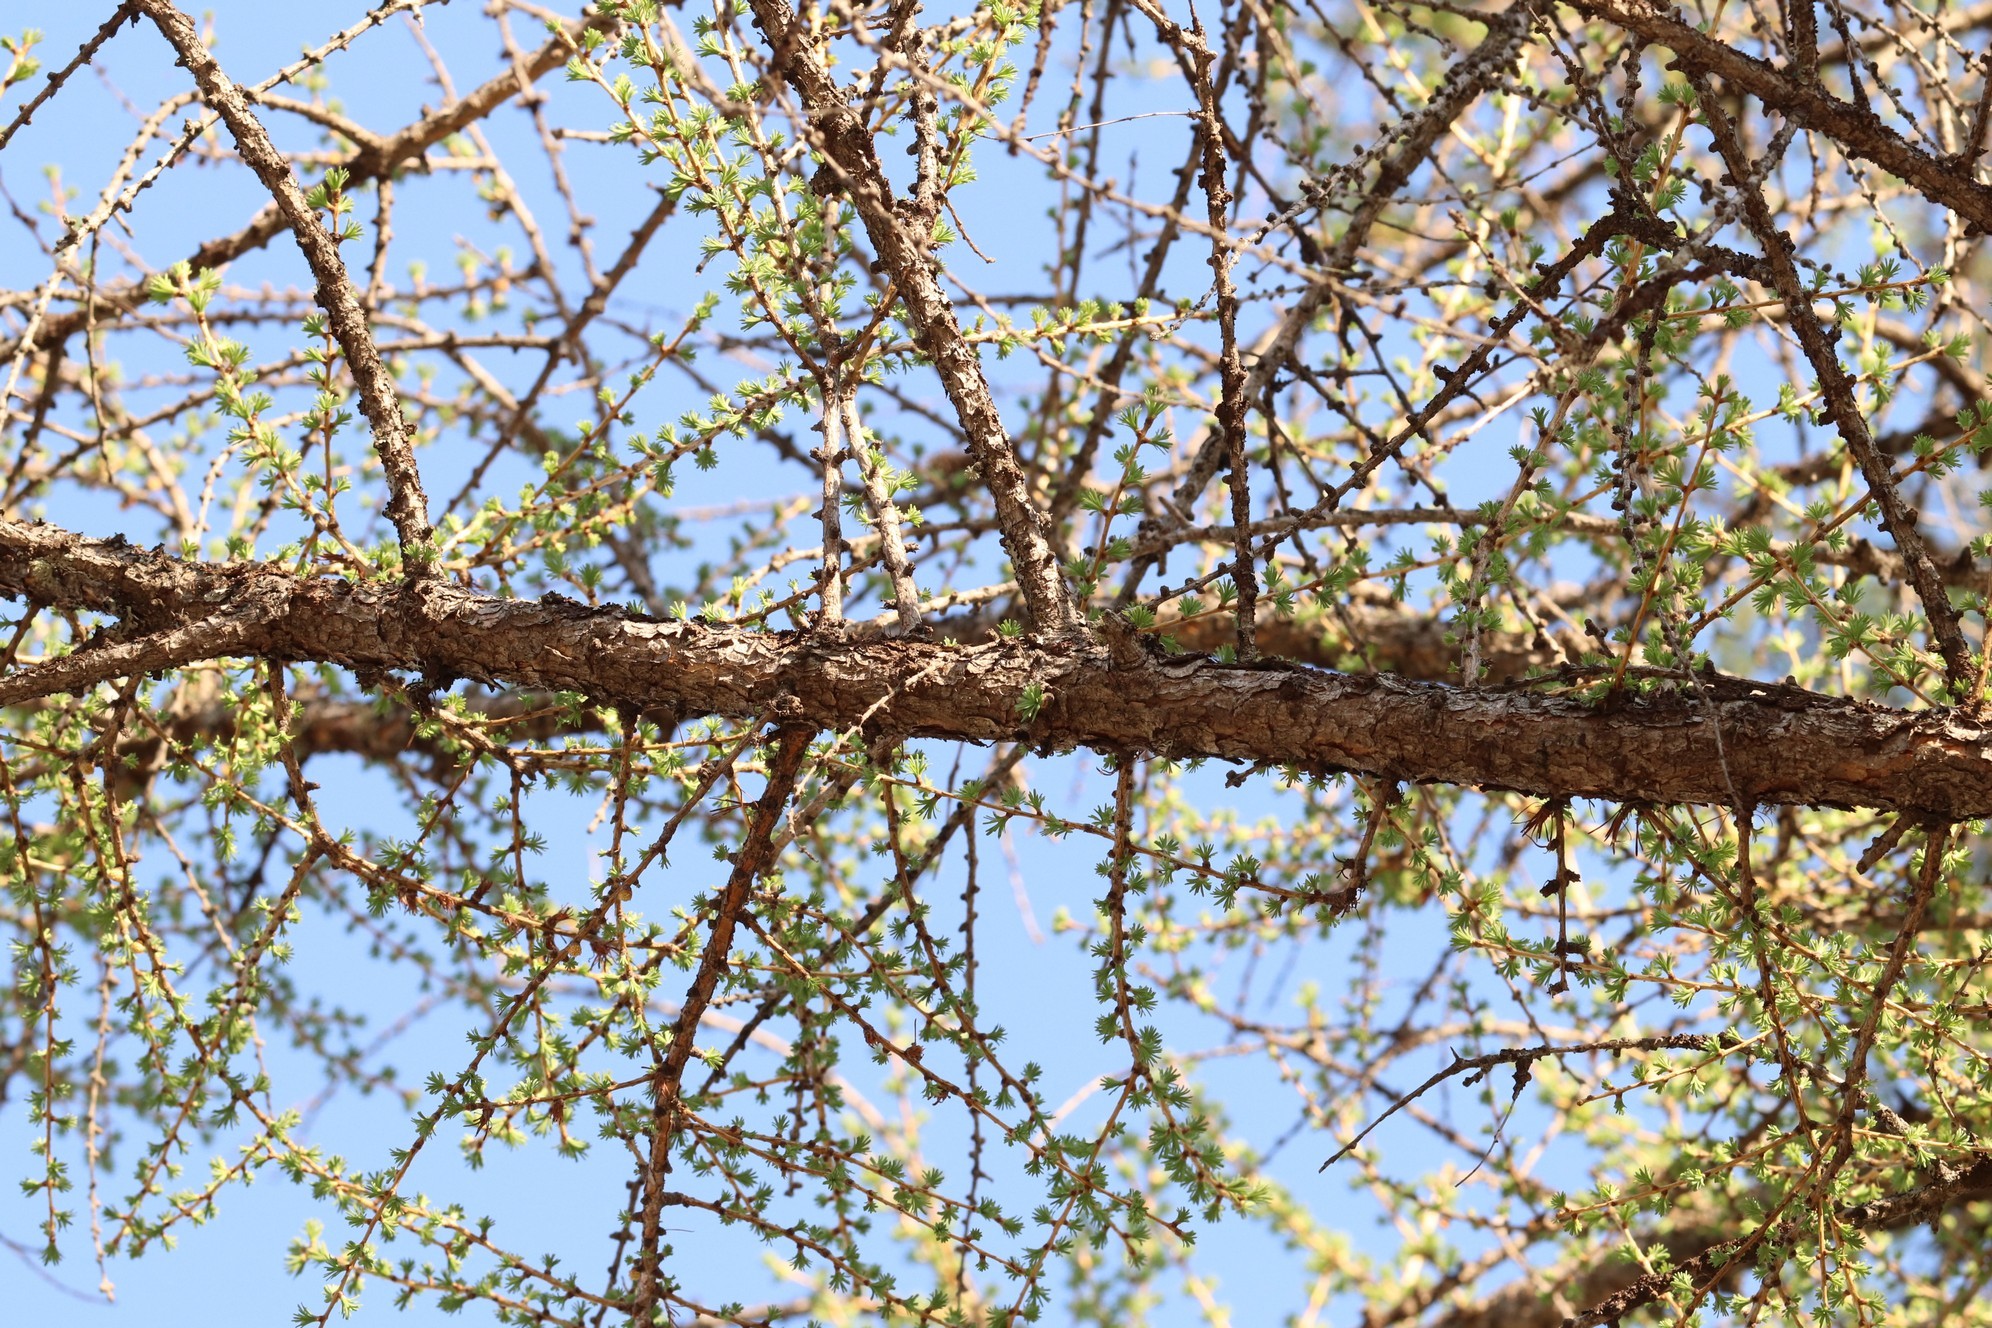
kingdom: Plantae
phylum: Tracheophyta
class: Pinopsida
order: Pinales
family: Pinaceae
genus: Larix
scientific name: Larix sibirica
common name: Siberian larch
